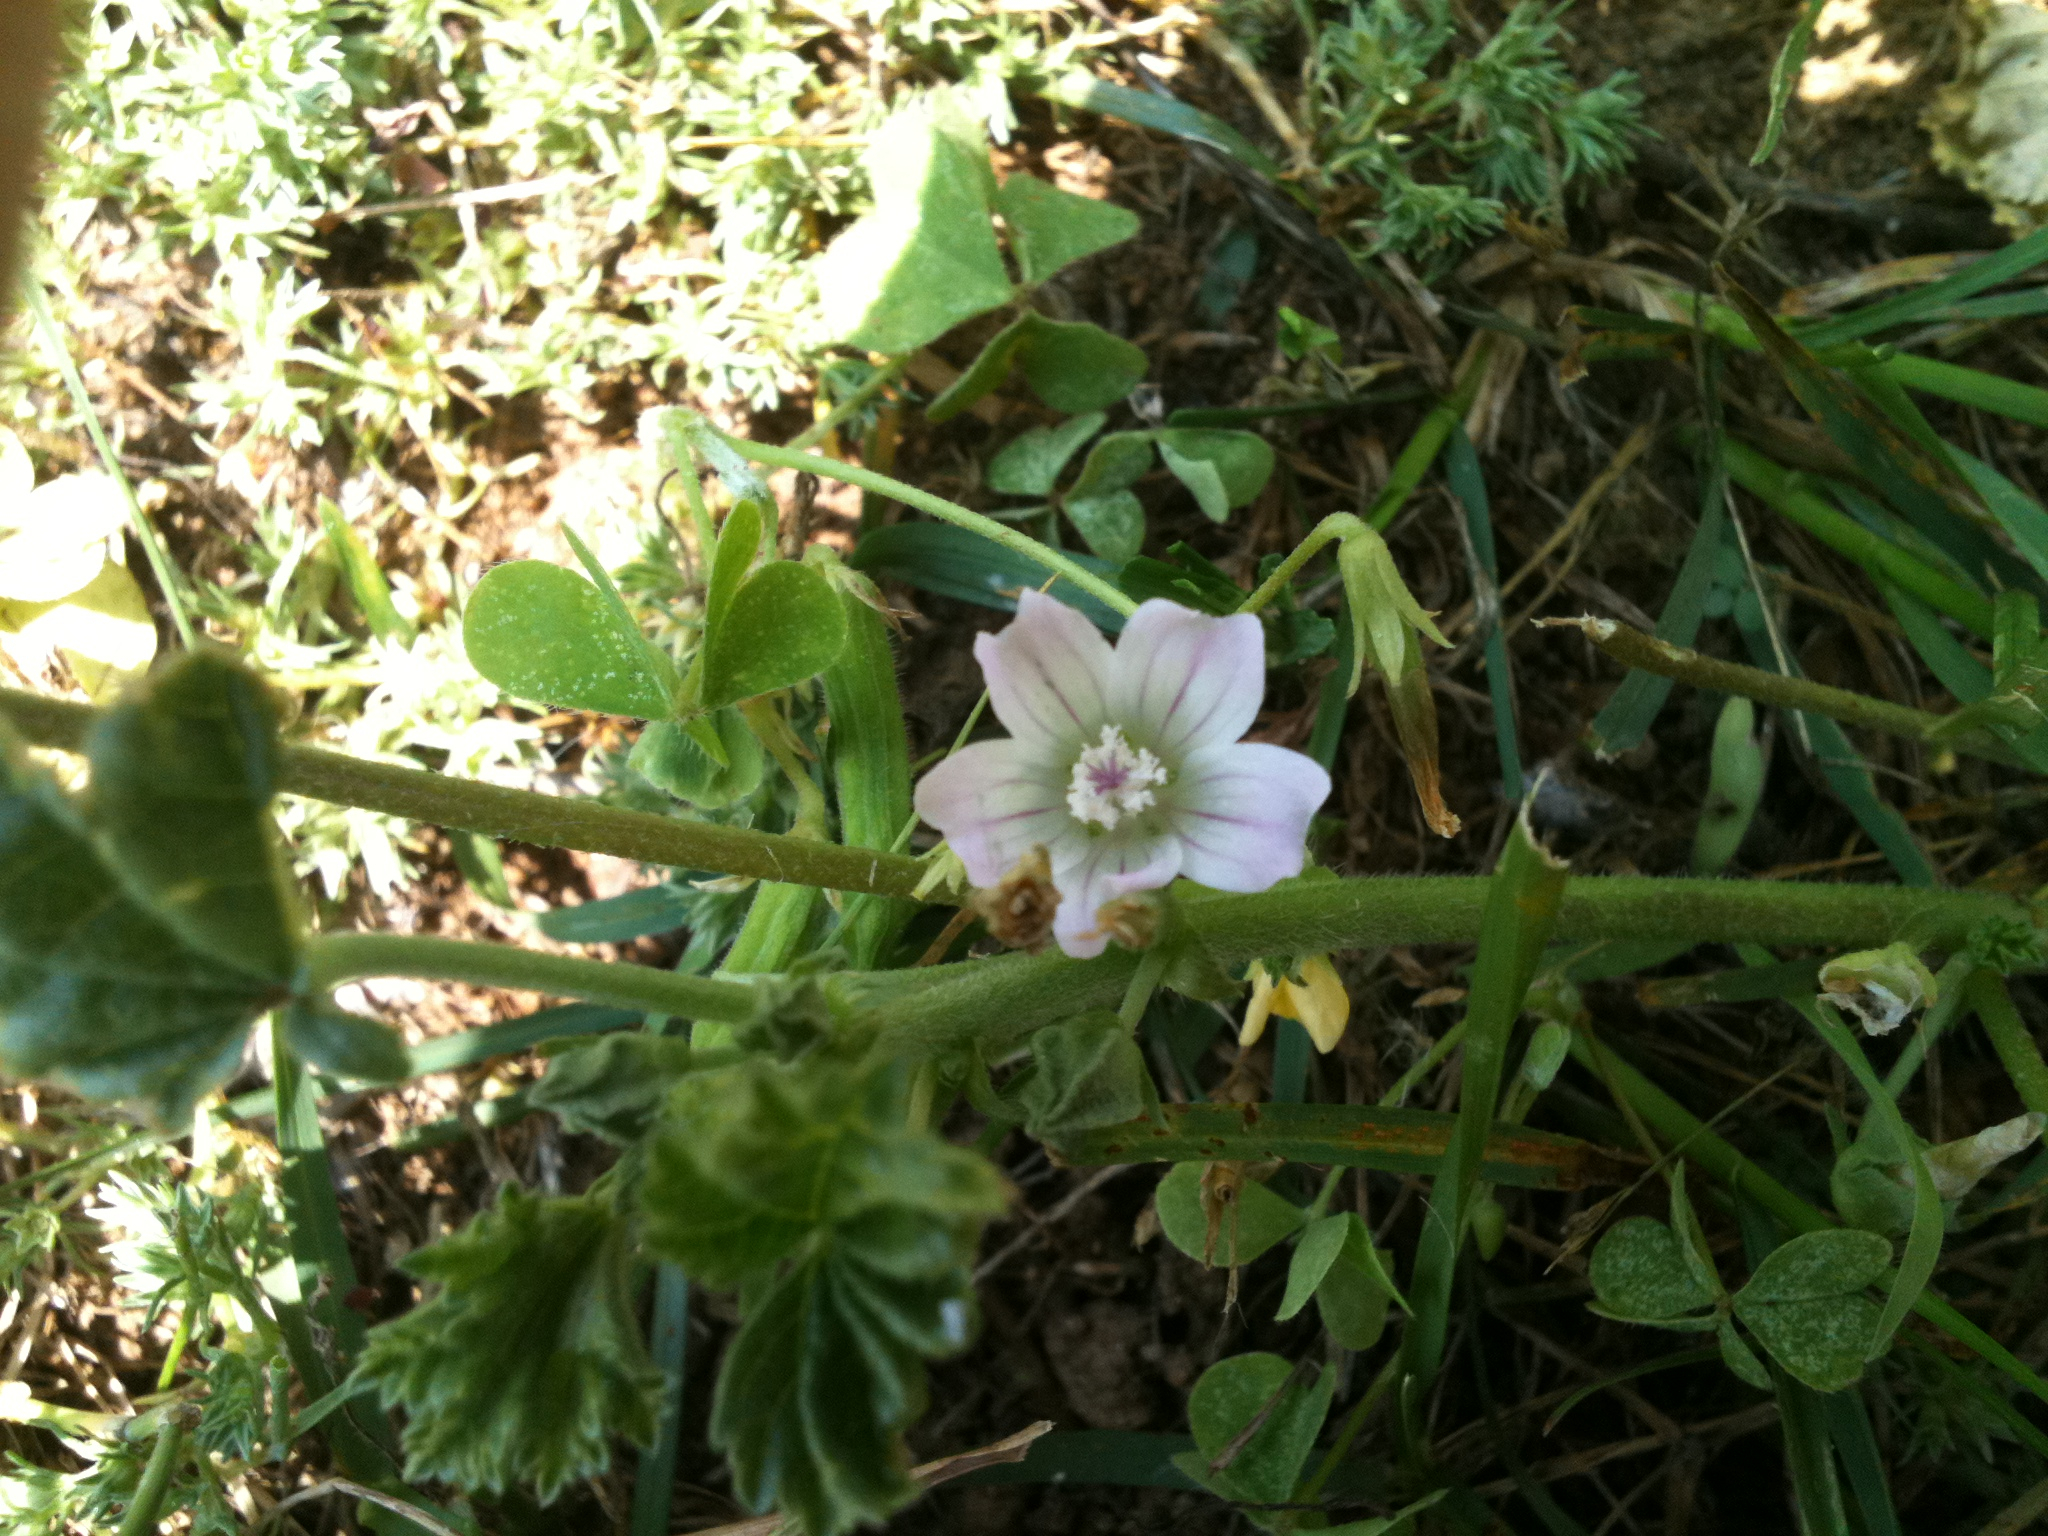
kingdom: Plantae
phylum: Tracheophyta
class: Magnoliopsida
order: Malvales
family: Malvaceae
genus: Malva
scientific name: Malva neglecta
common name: Common mallow
